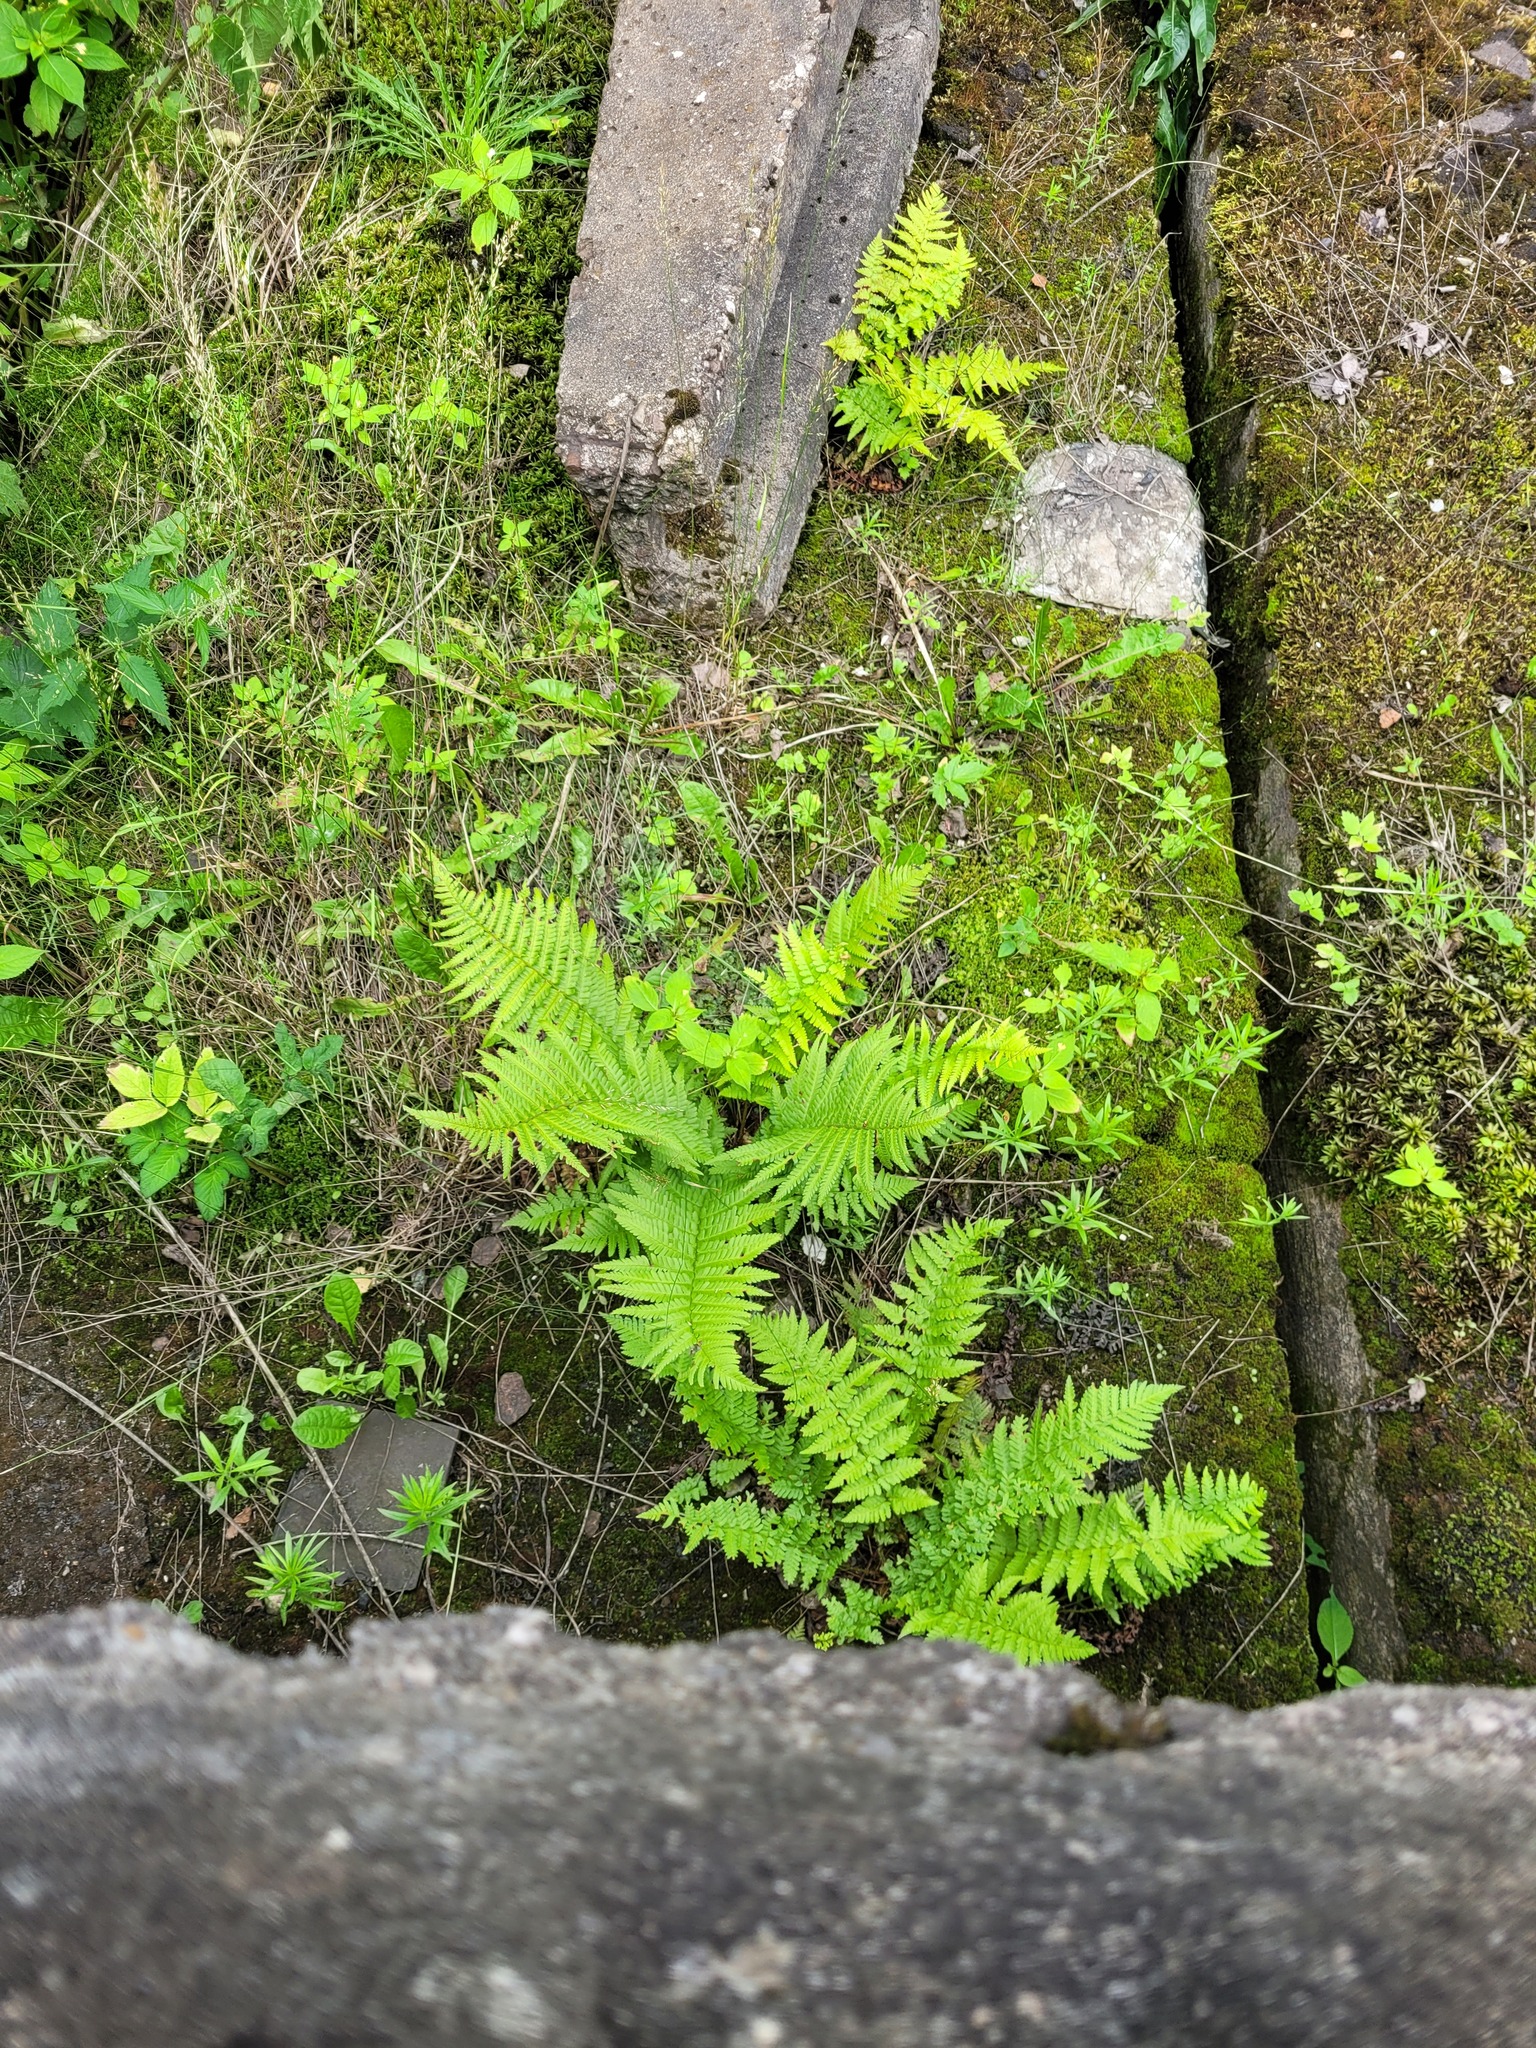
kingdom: Plantae
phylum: Tracheophyta
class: Polypodiopsida
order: Polypodiales
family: Dryopteridaceae
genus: Dryopteris
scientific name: Dryopteris filix-mas
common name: Male fern
